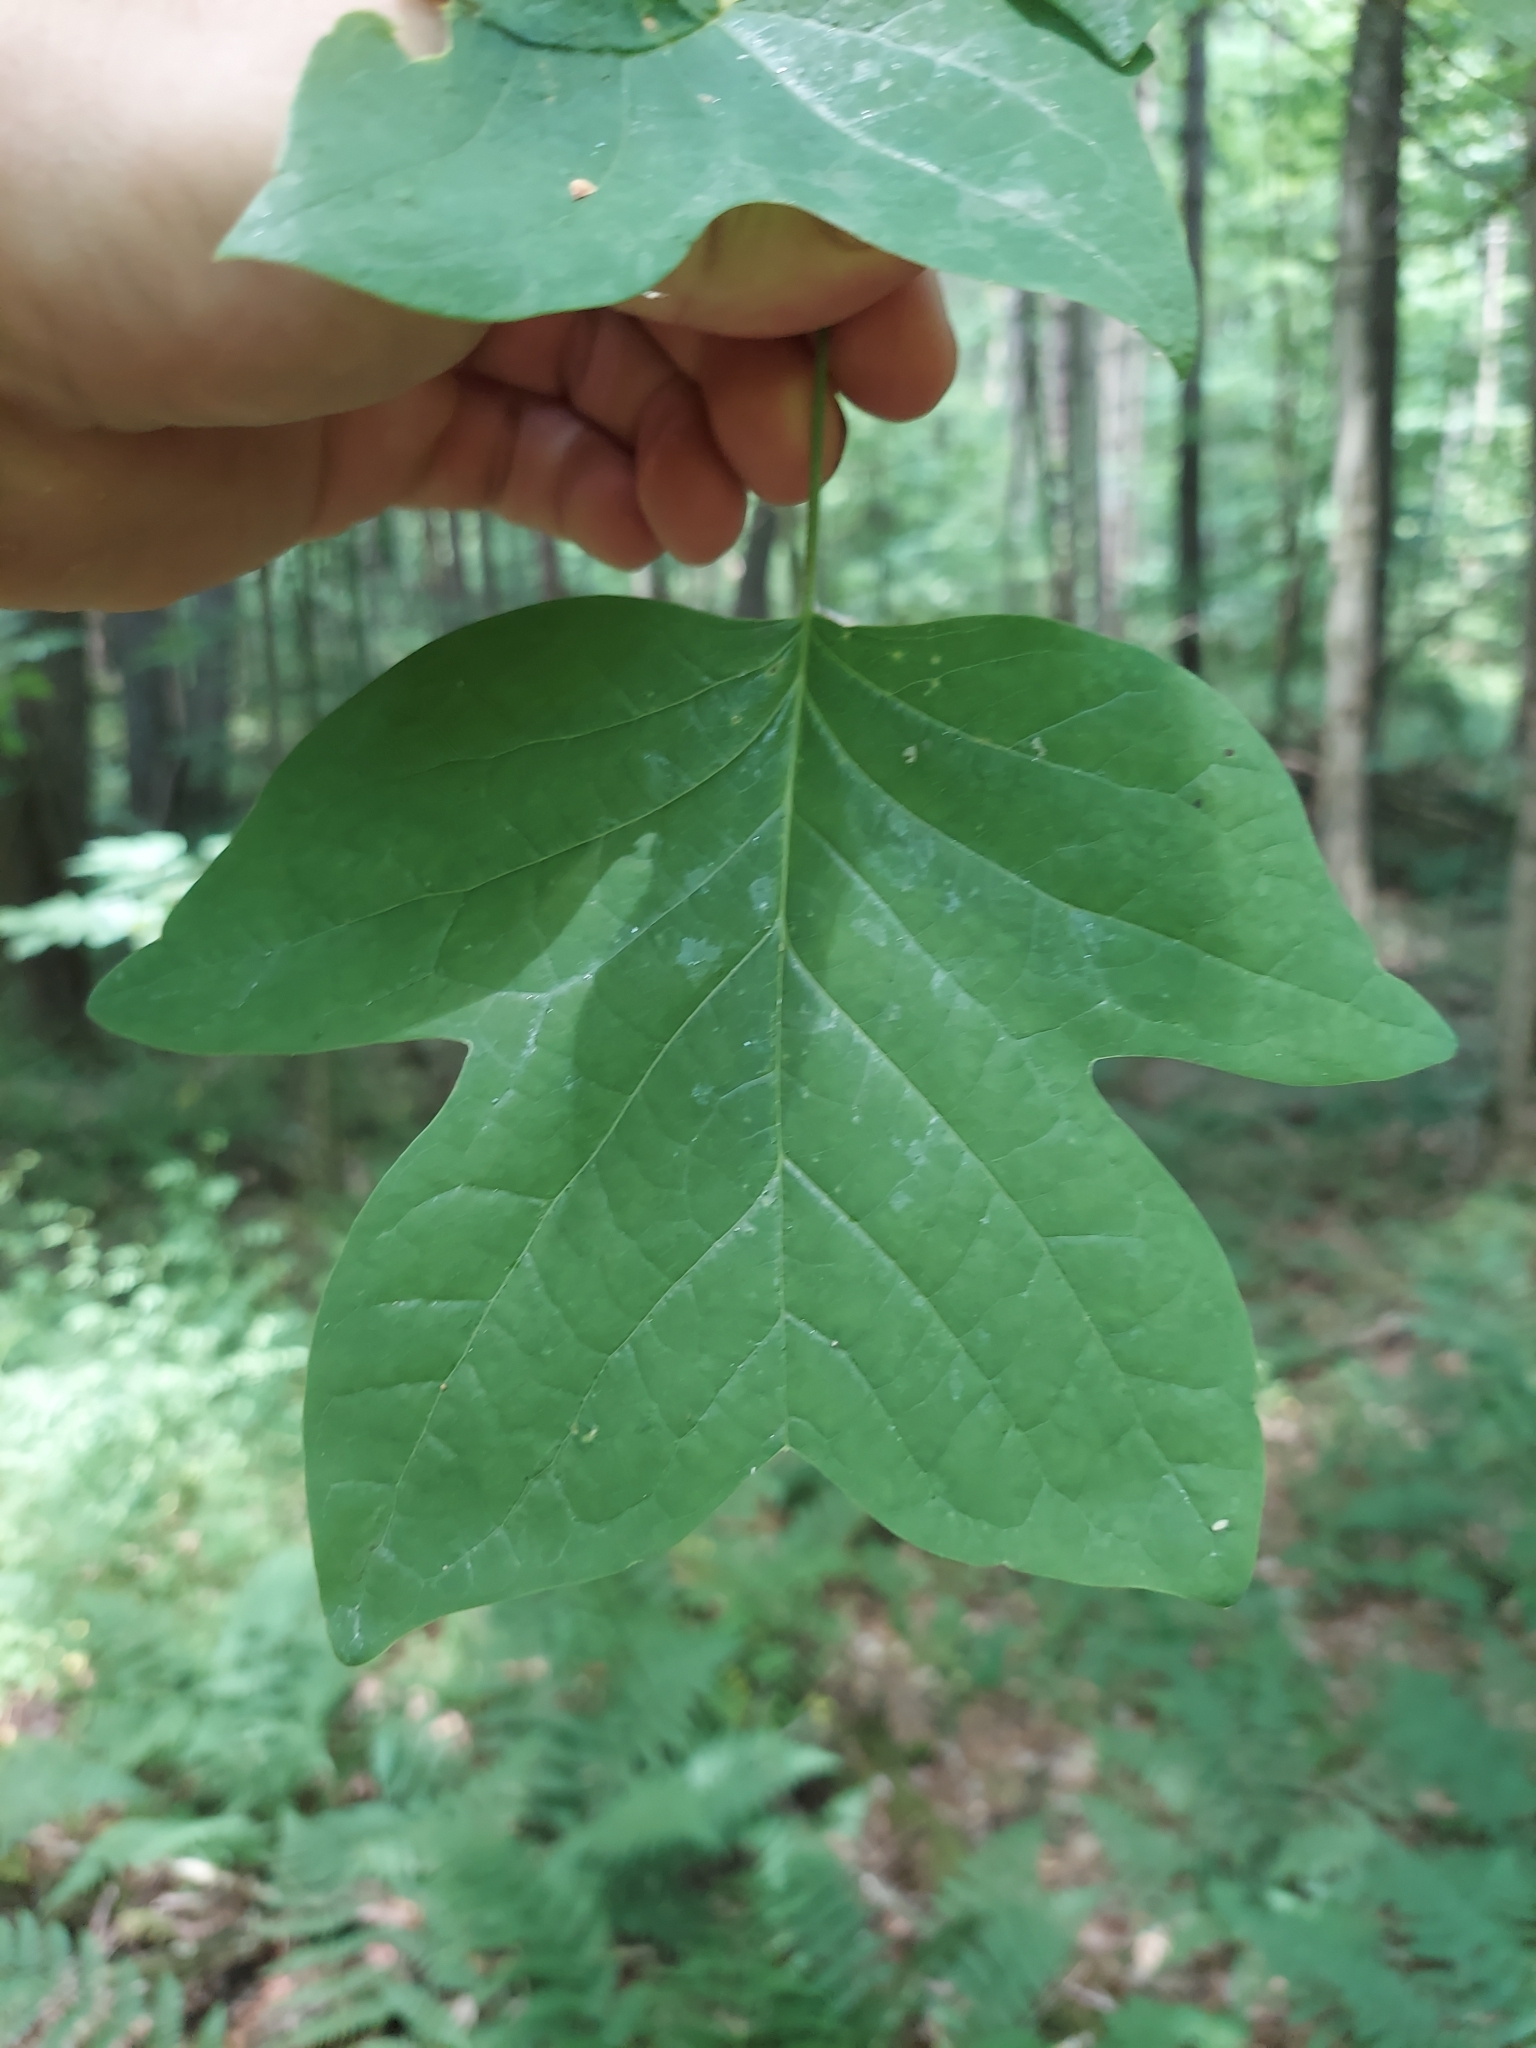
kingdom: Plantae
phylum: Tracheophyta
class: Magnoliopsida
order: Magnoliales
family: Magnoliaceae
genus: Liriodendron
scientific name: Liriodendron tulipifera
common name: Tulip tree
